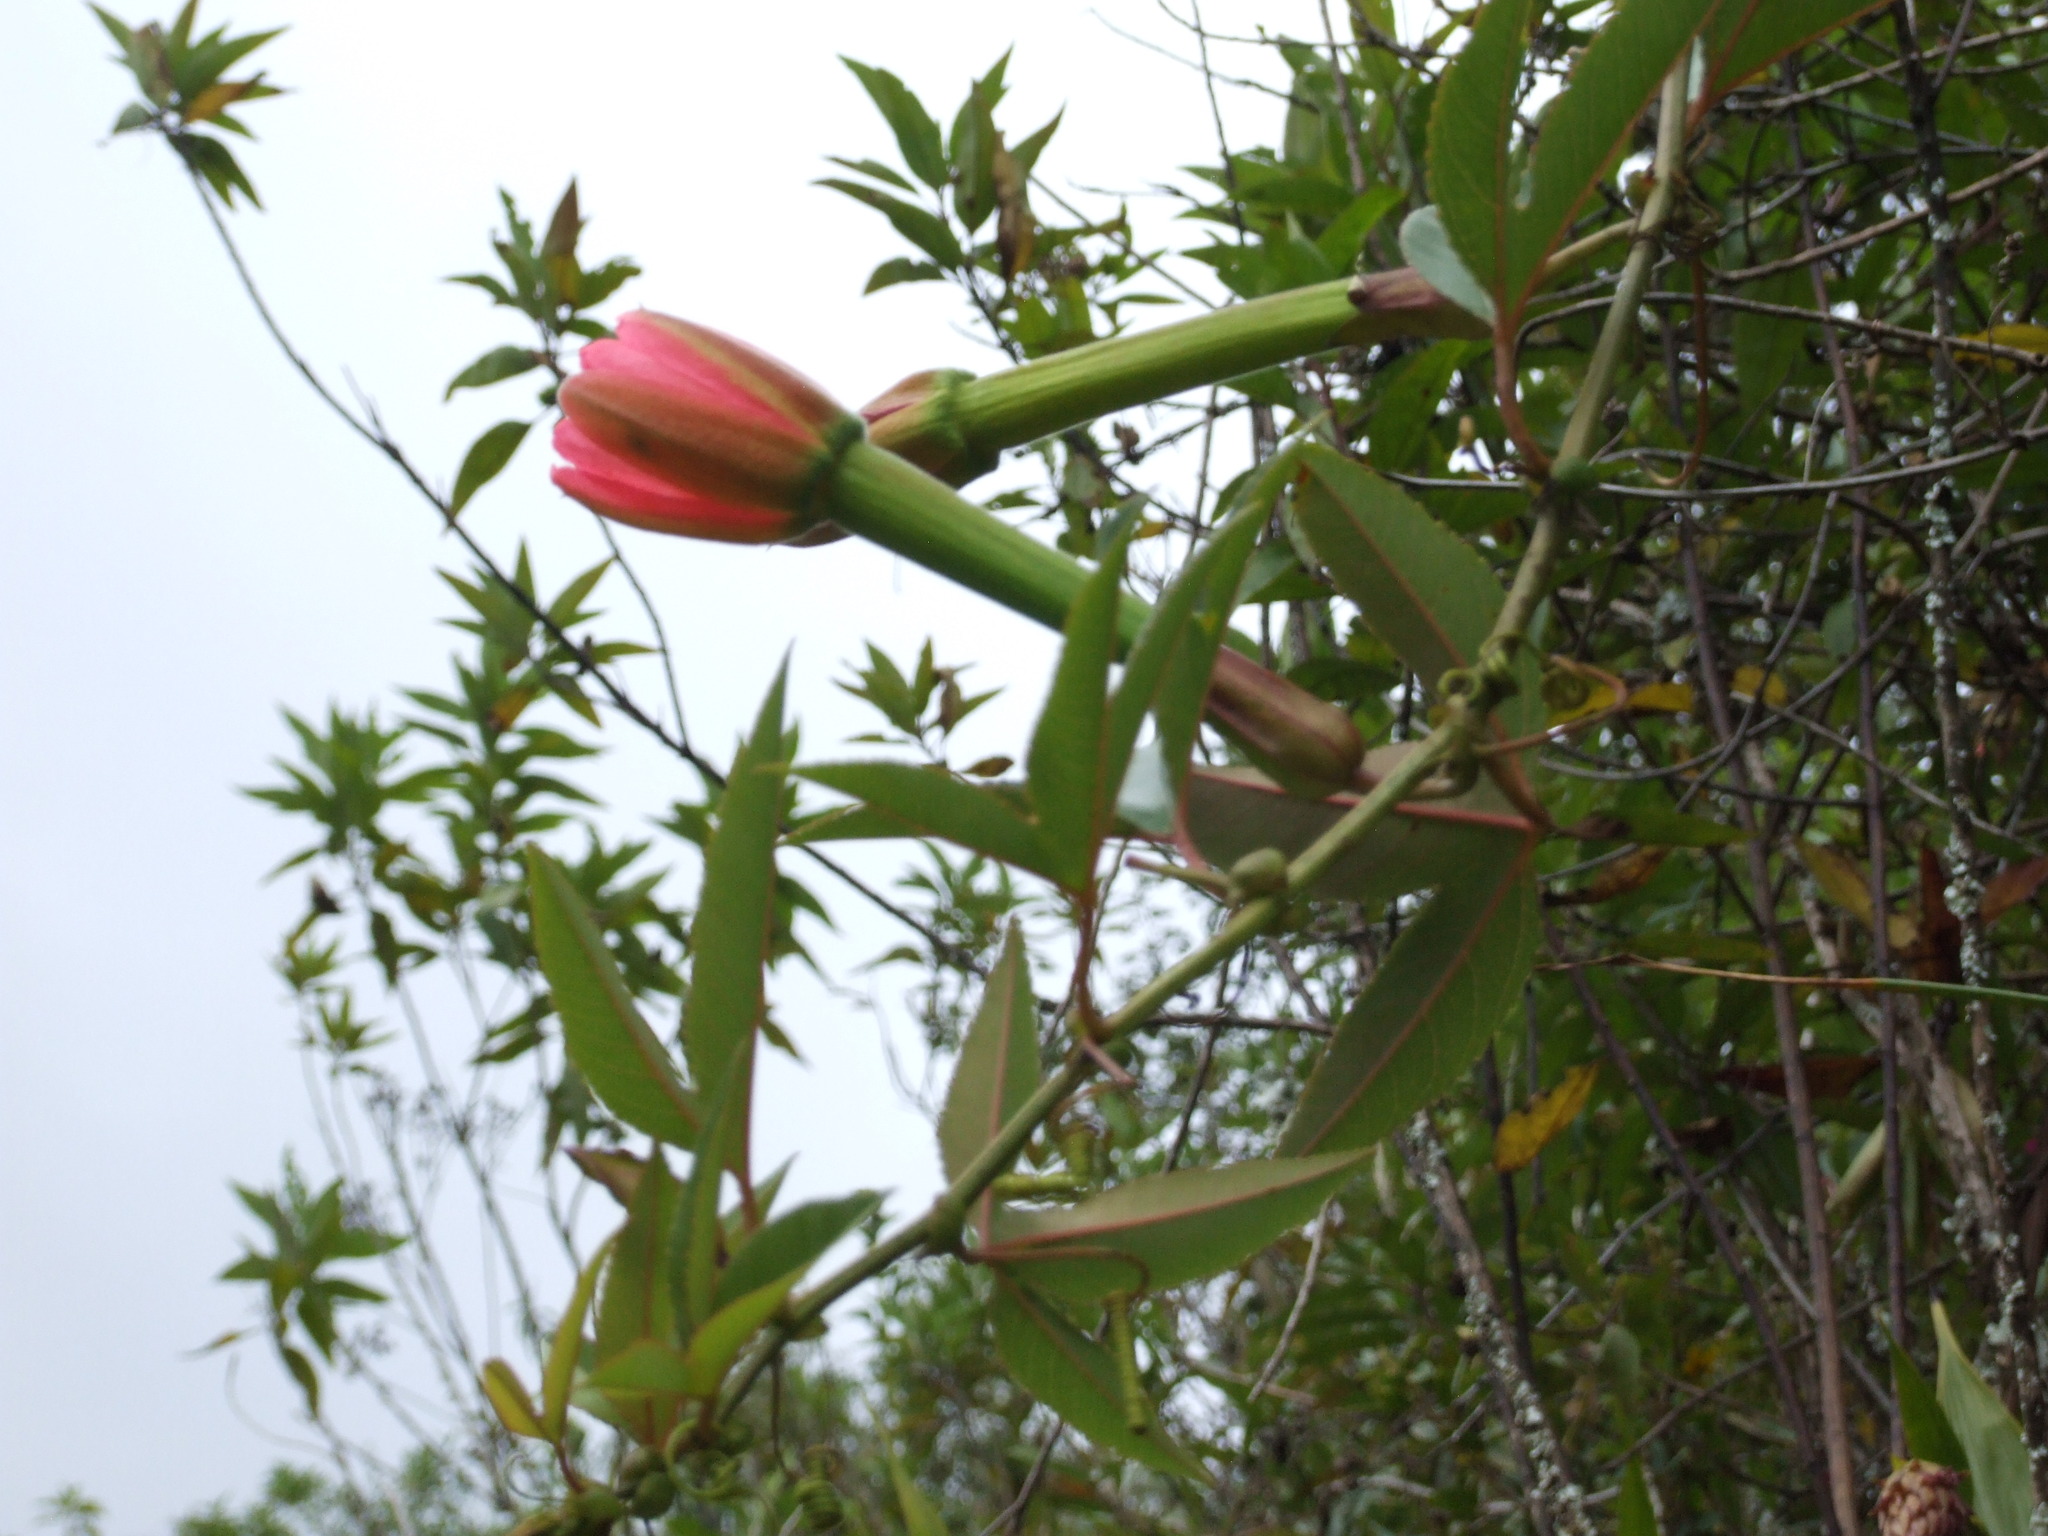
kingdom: Plantae
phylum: Tracheophyta
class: Magnoliopsida
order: Malpighiales
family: Passifloraceae
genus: Passiflora
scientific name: Passiflora mixta
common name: Passion flower
